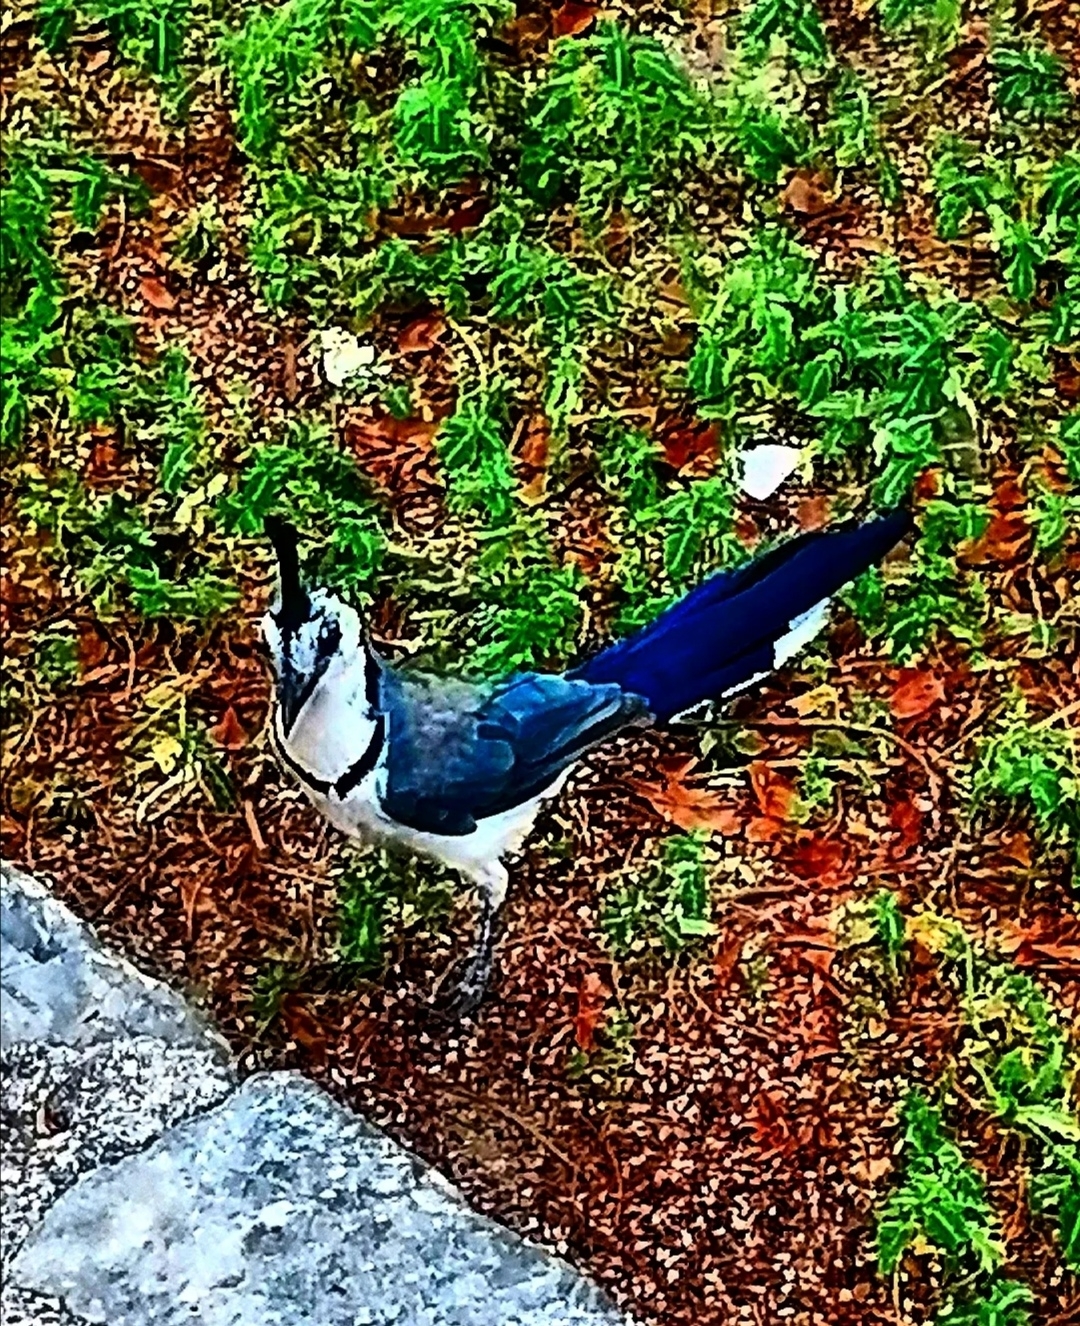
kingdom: Animalia
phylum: Chordata
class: Aves
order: Passeriformes
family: Corvidae
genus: Calocitta
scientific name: Calocitta formosa
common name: White-throated magpie-jay
